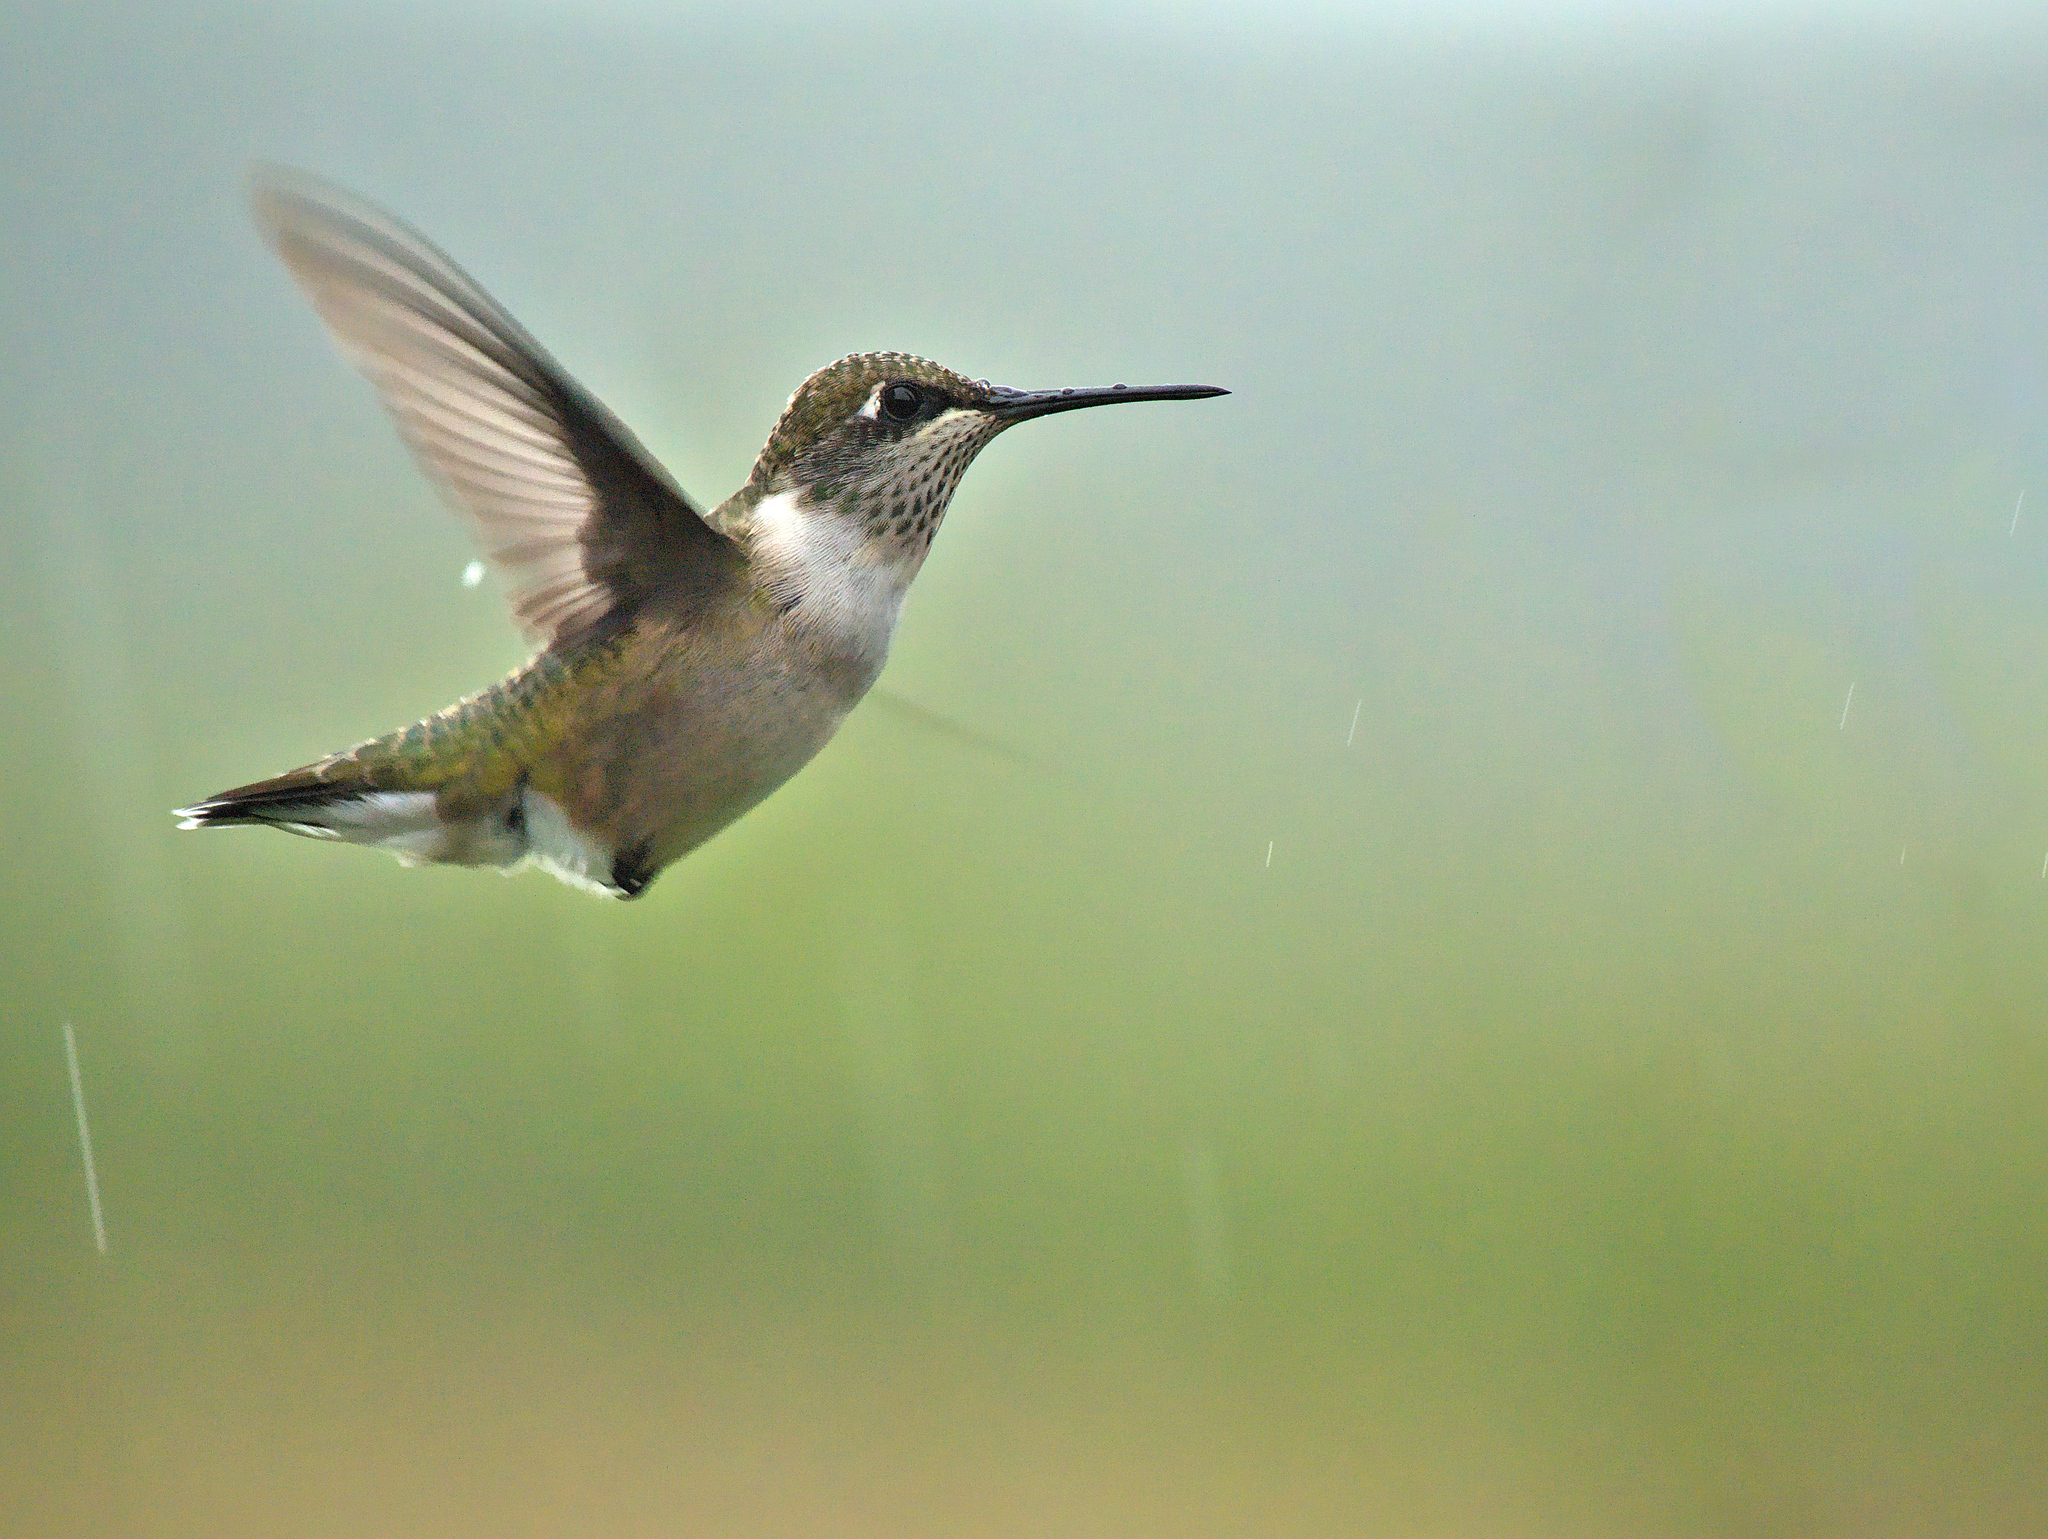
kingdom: Animalia
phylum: Chordata
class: Aves
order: Apodiformes
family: Trochilidae
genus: Archilochus
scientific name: Archilochus colubris
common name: Ruby-throated hummingbird
